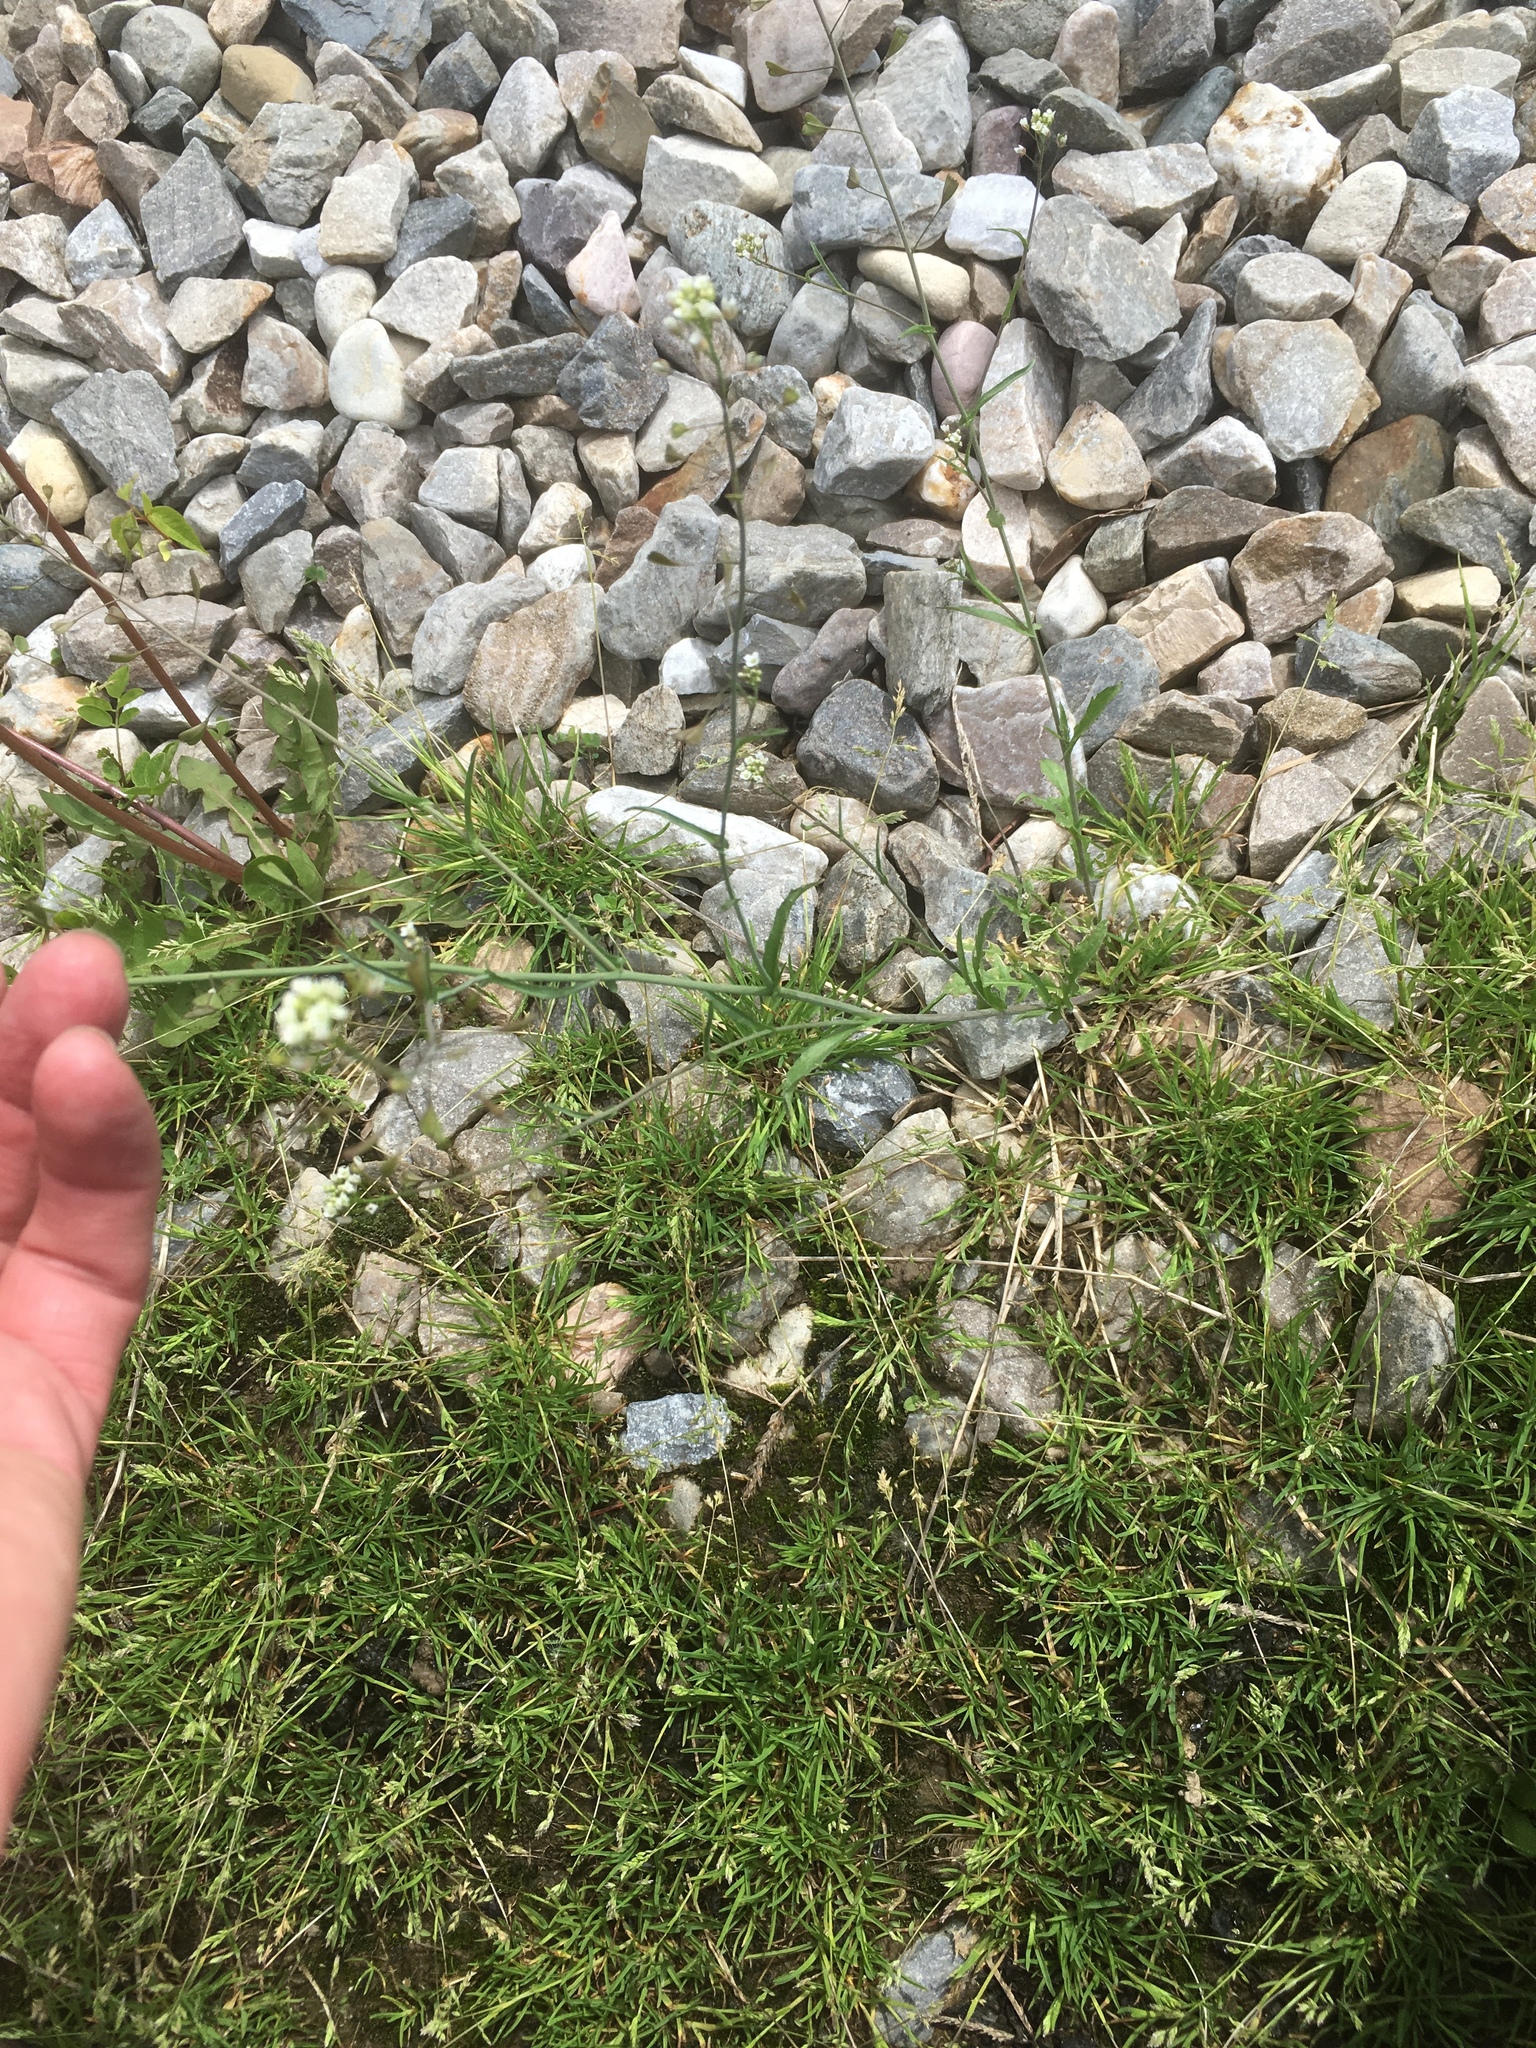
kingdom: Plantae
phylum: Tracheophyta
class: Magnoliopsida
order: Brassicales
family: Brassicaceae
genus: Capsella
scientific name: Capsella bursa-pastoris
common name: Shepherd's purse
